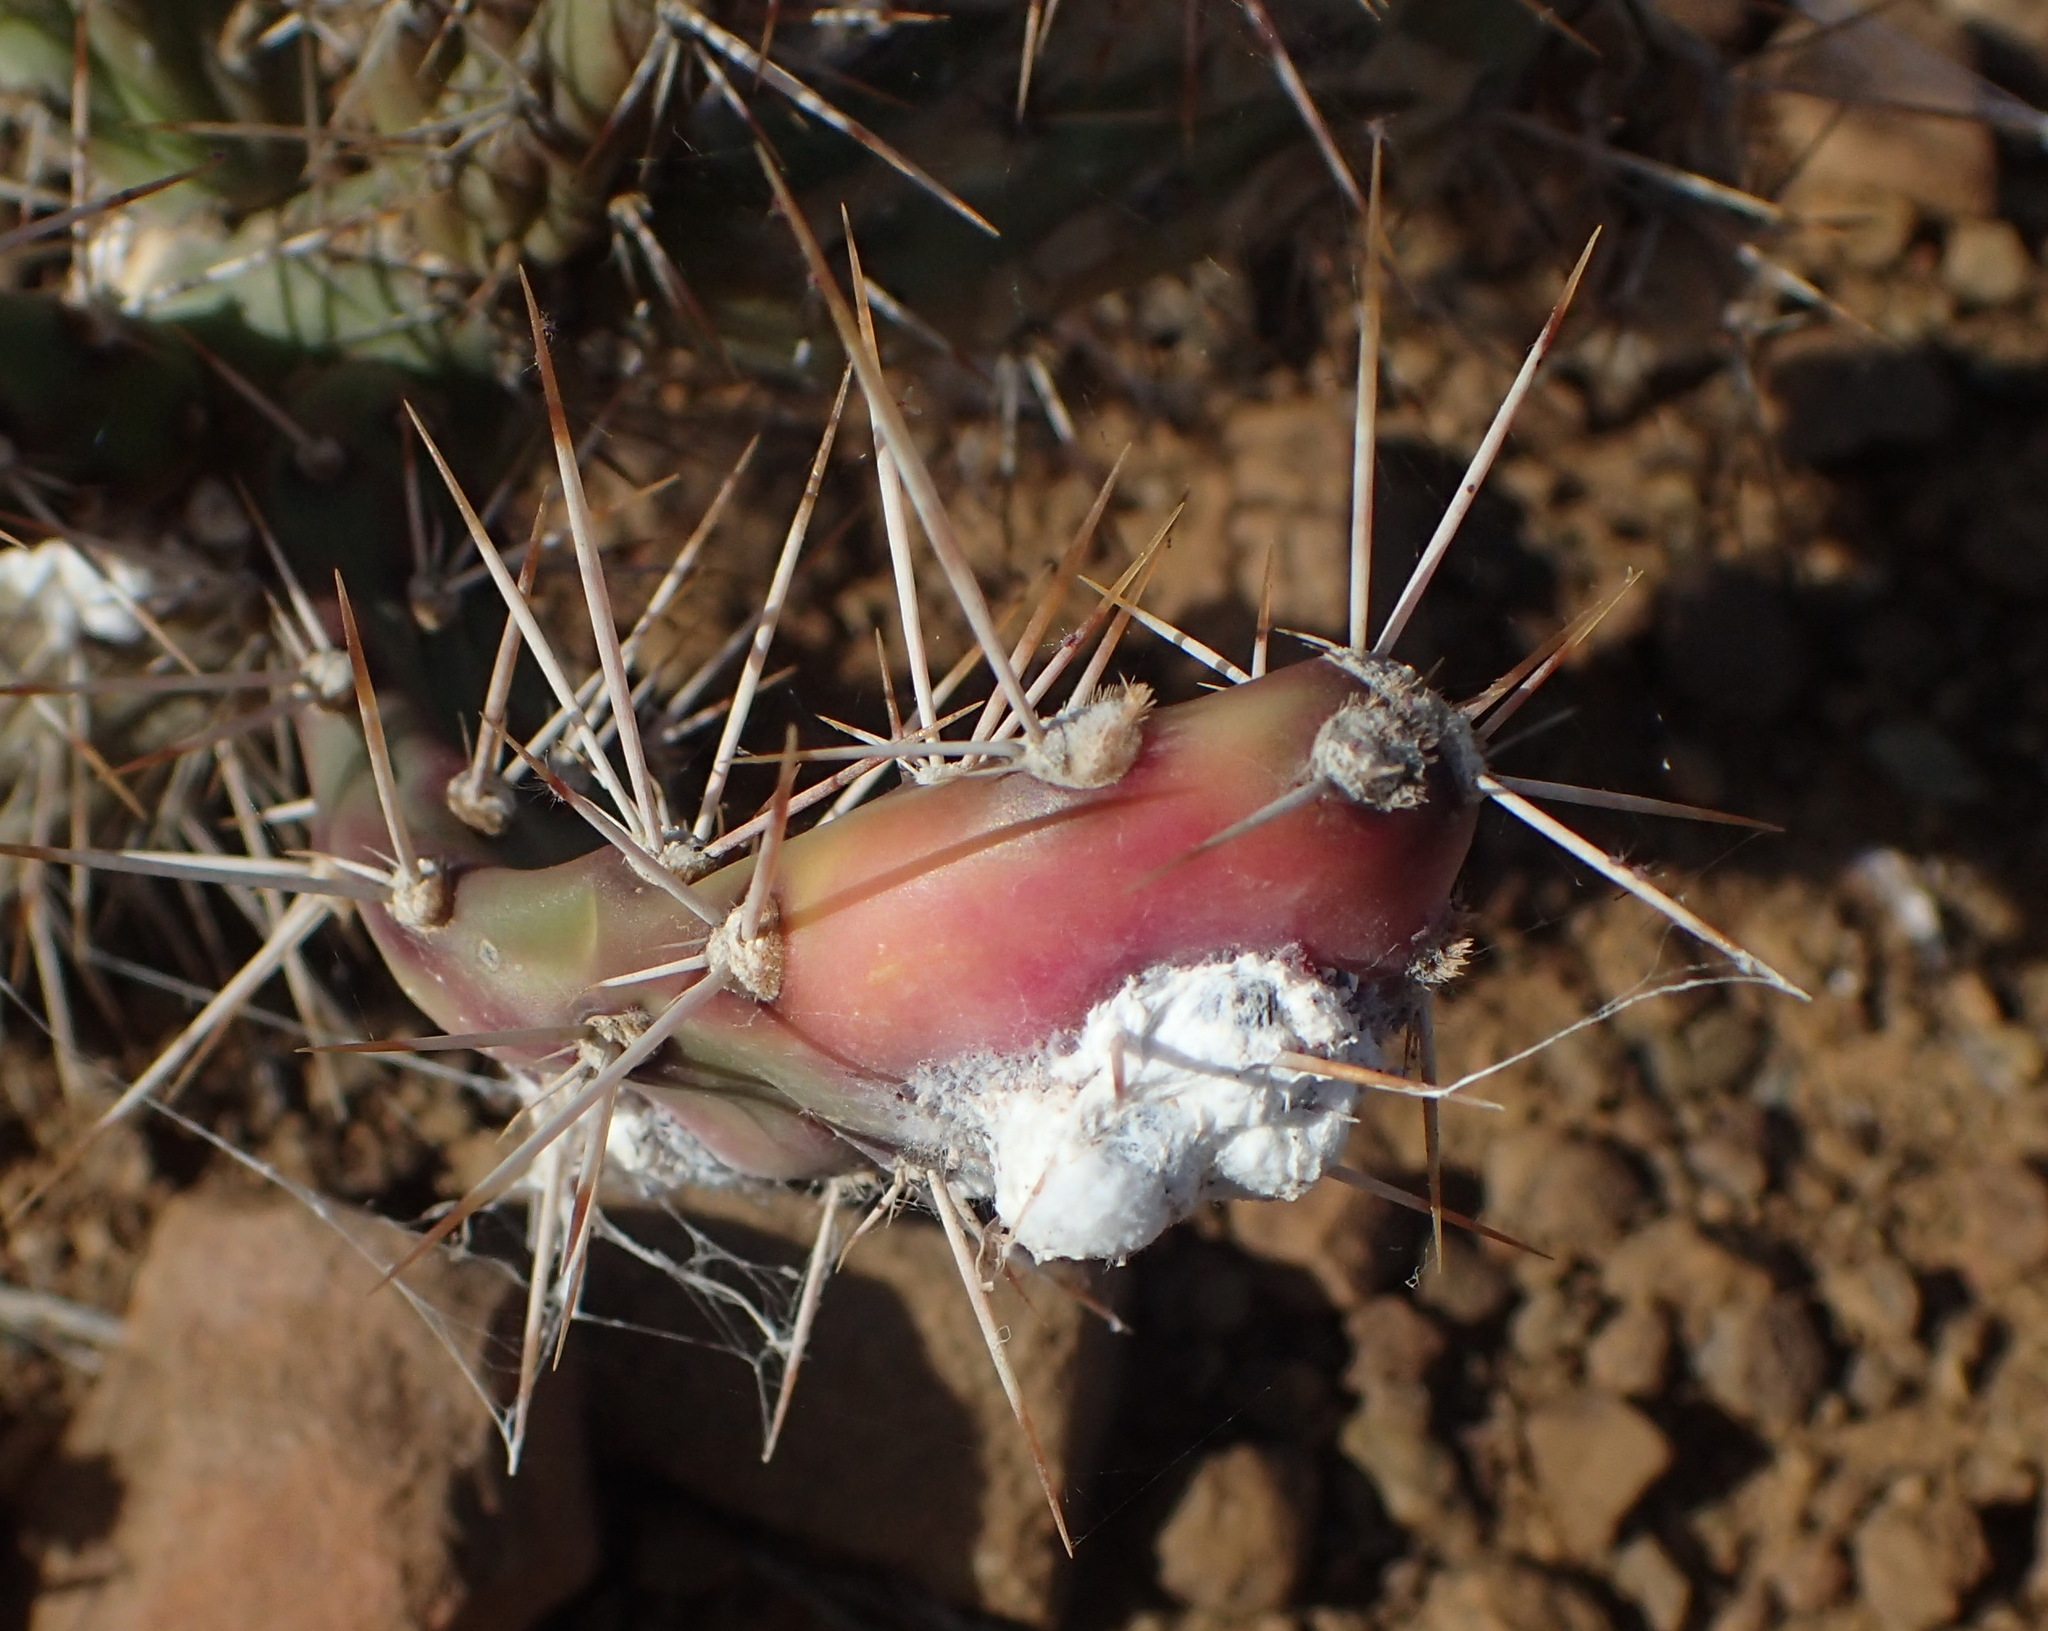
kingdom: Plantae
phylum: Tracheophyta
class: Magnoliopsida
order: Caryophyllales
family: Cactaceae
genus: Opuntia
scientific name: Opuntia aurantiaca
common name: Jointed pricklypear
